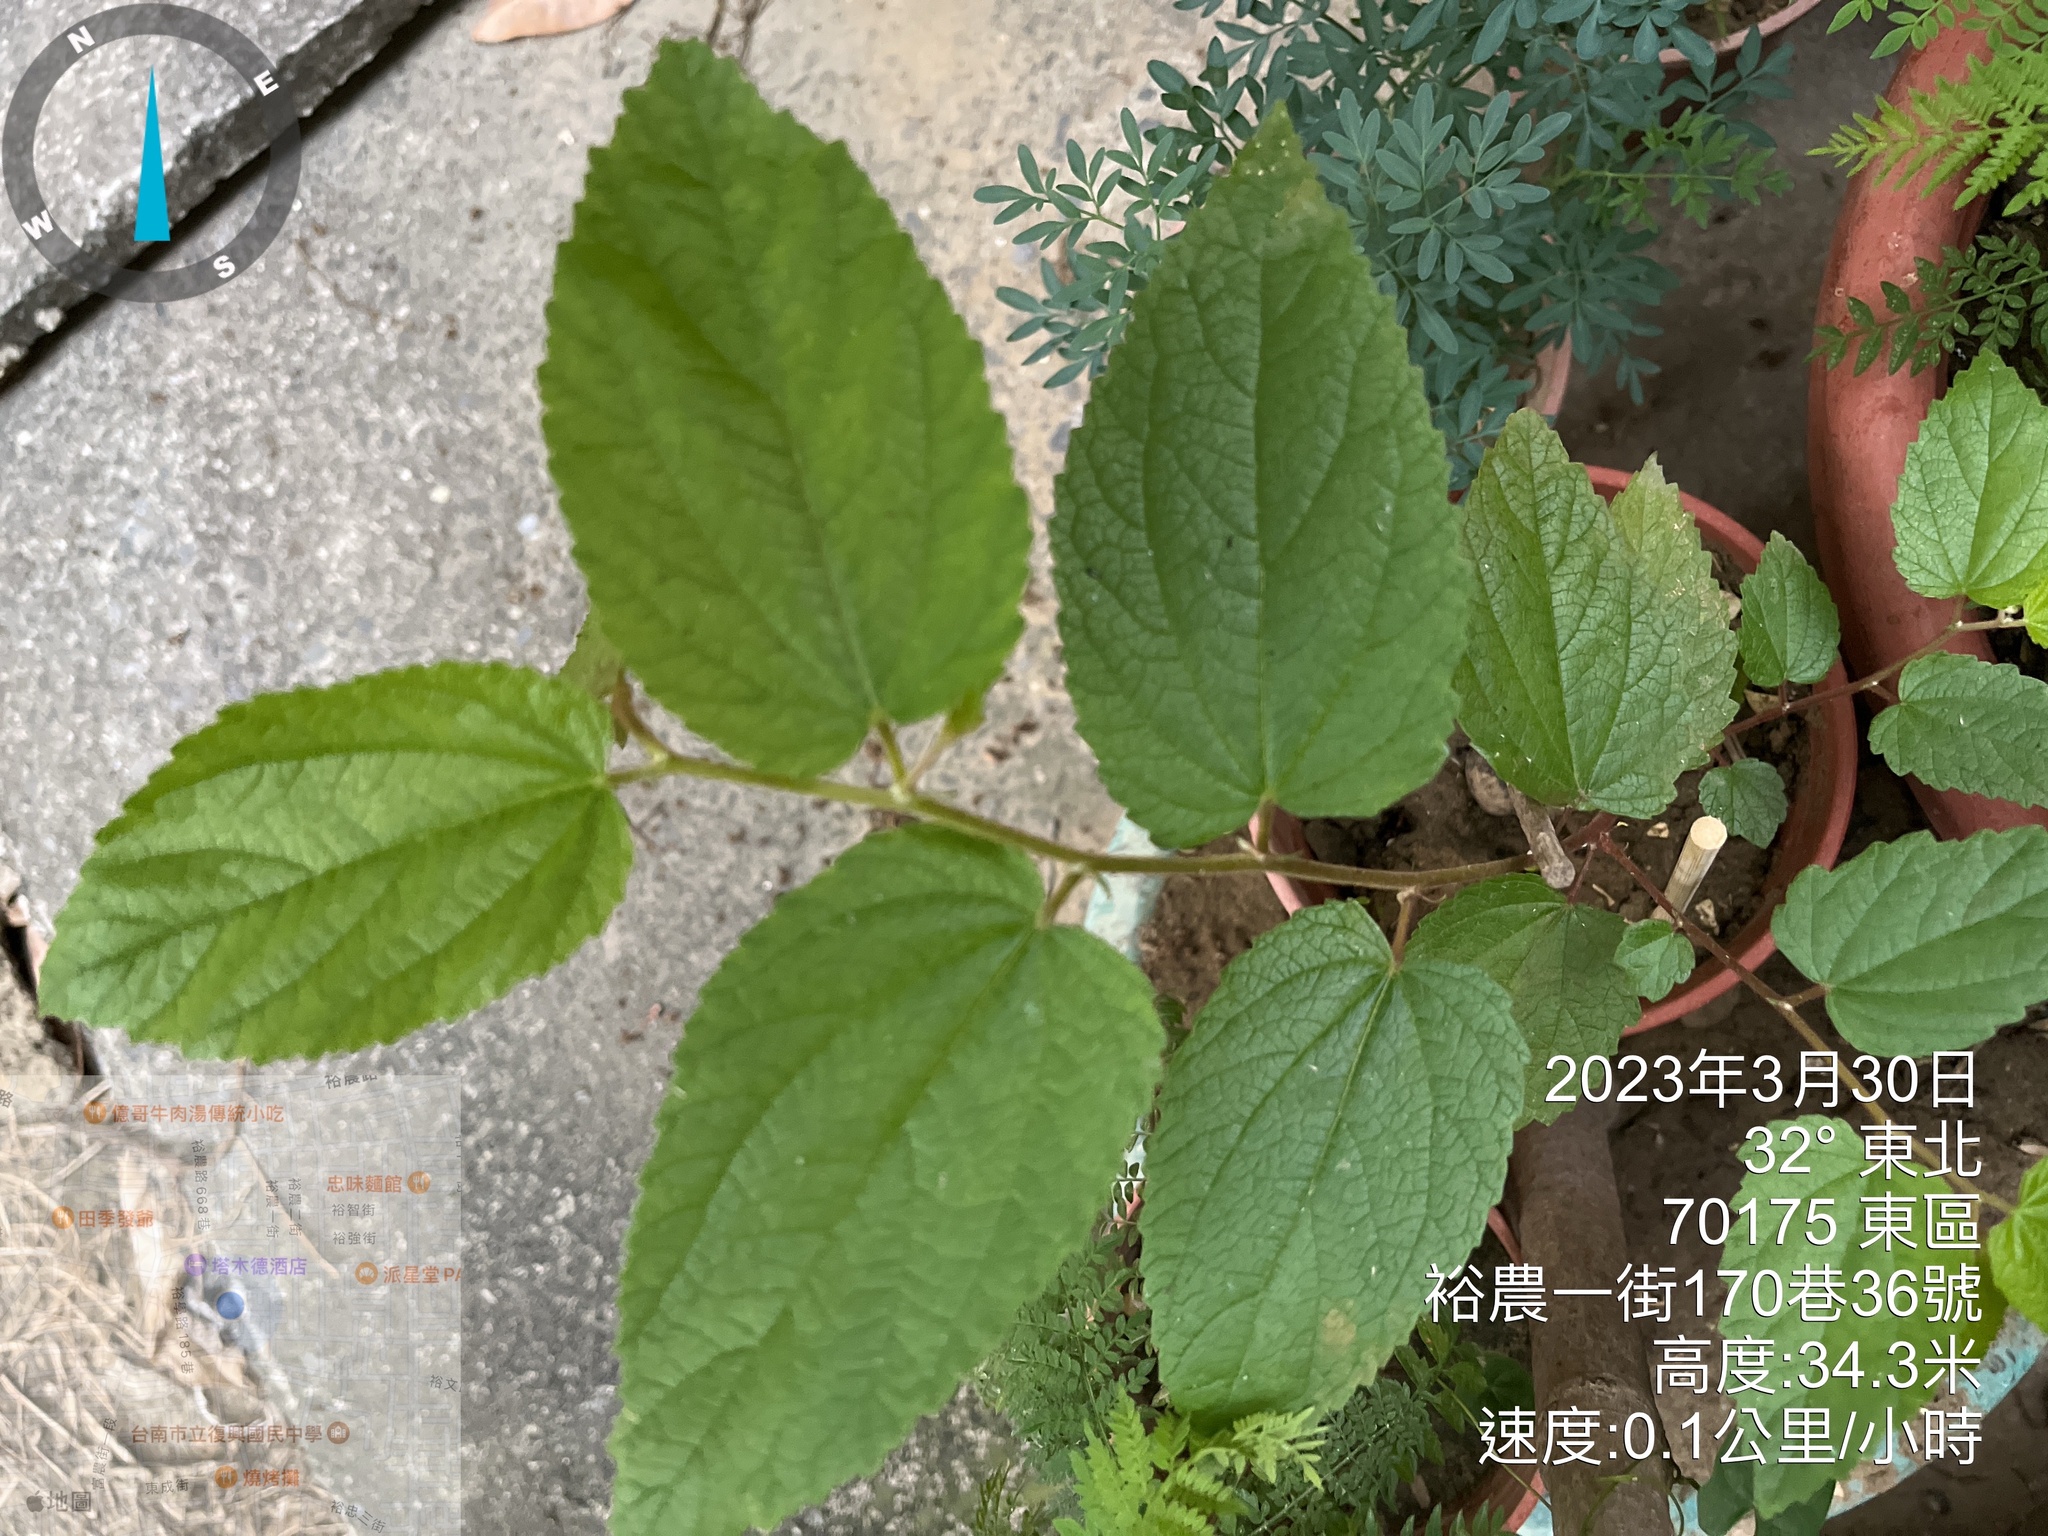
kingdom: Plantae
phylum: Tracheophyta
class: Magnoliopsida
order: Malvales
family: Muntingiaceae
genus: Muntingia
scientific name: Muntingia calabura
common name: Strawberrytree
